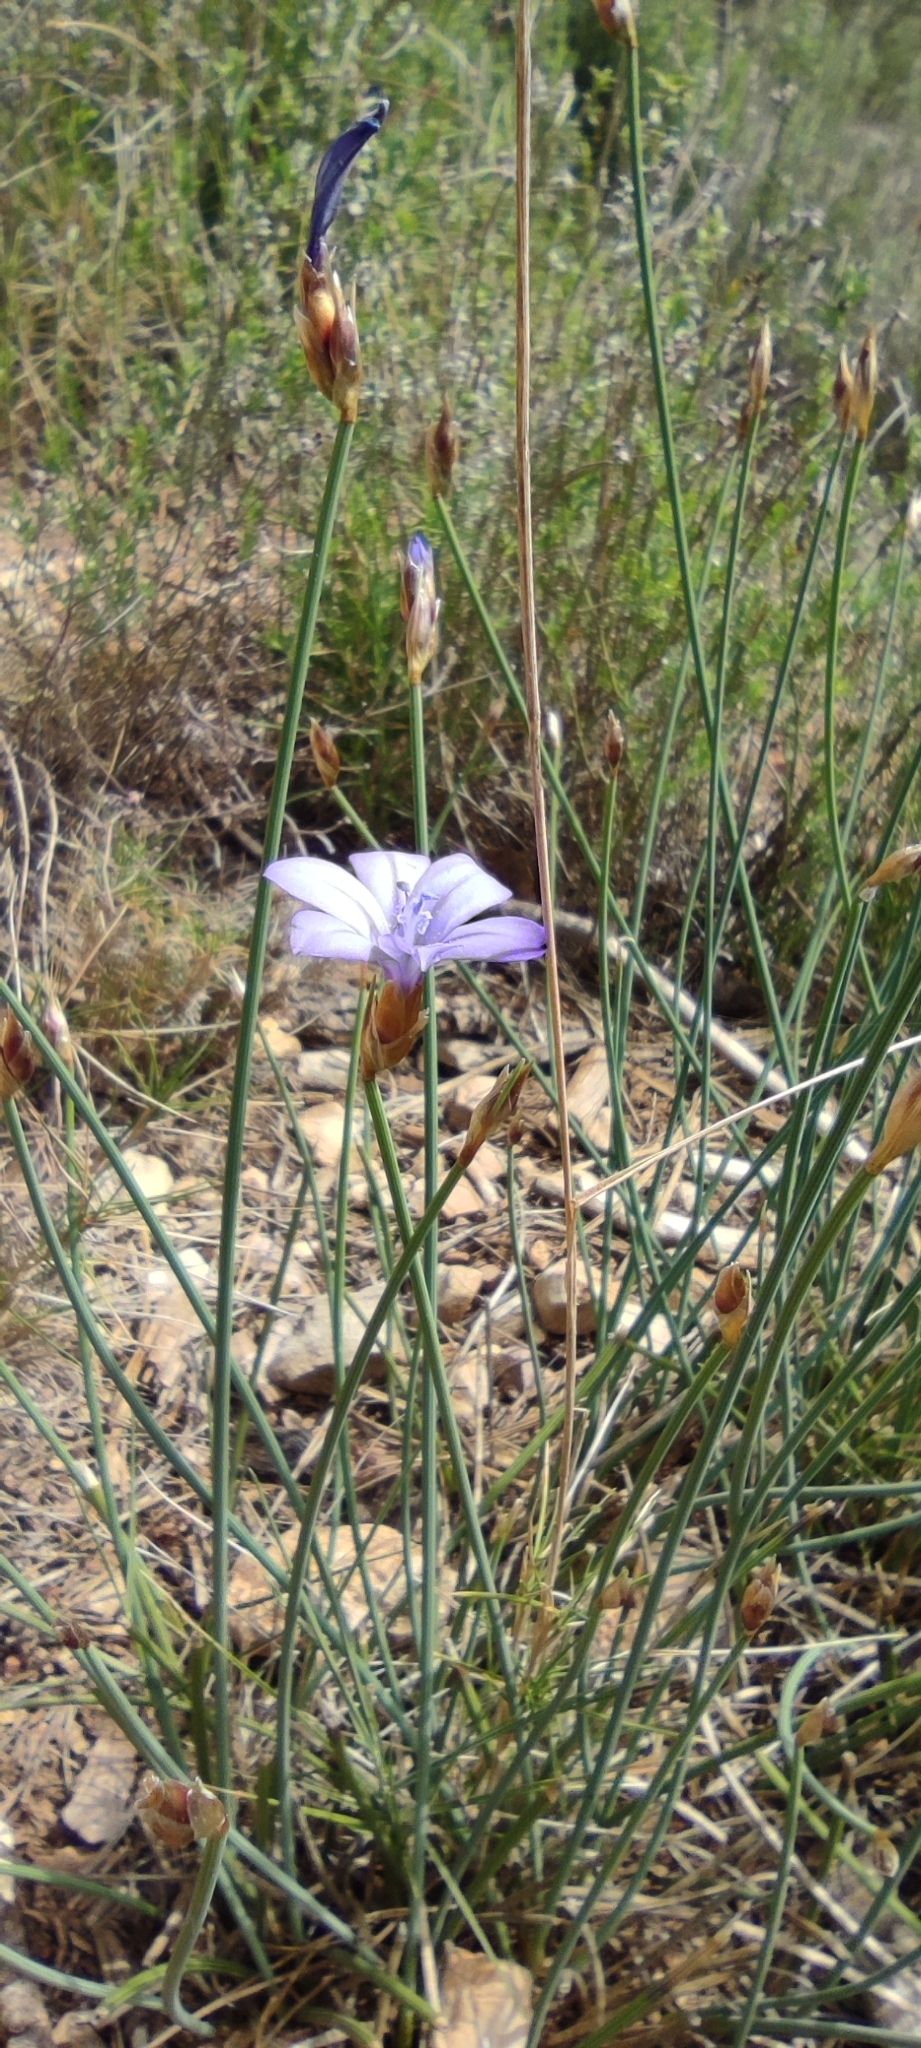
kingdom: Plantae
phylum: Tracheophyta
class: Liliopsida
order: Asparagales
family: Asparagaceae
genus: Aphyllanthes
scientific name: Aphyllanthes monspeliensis
